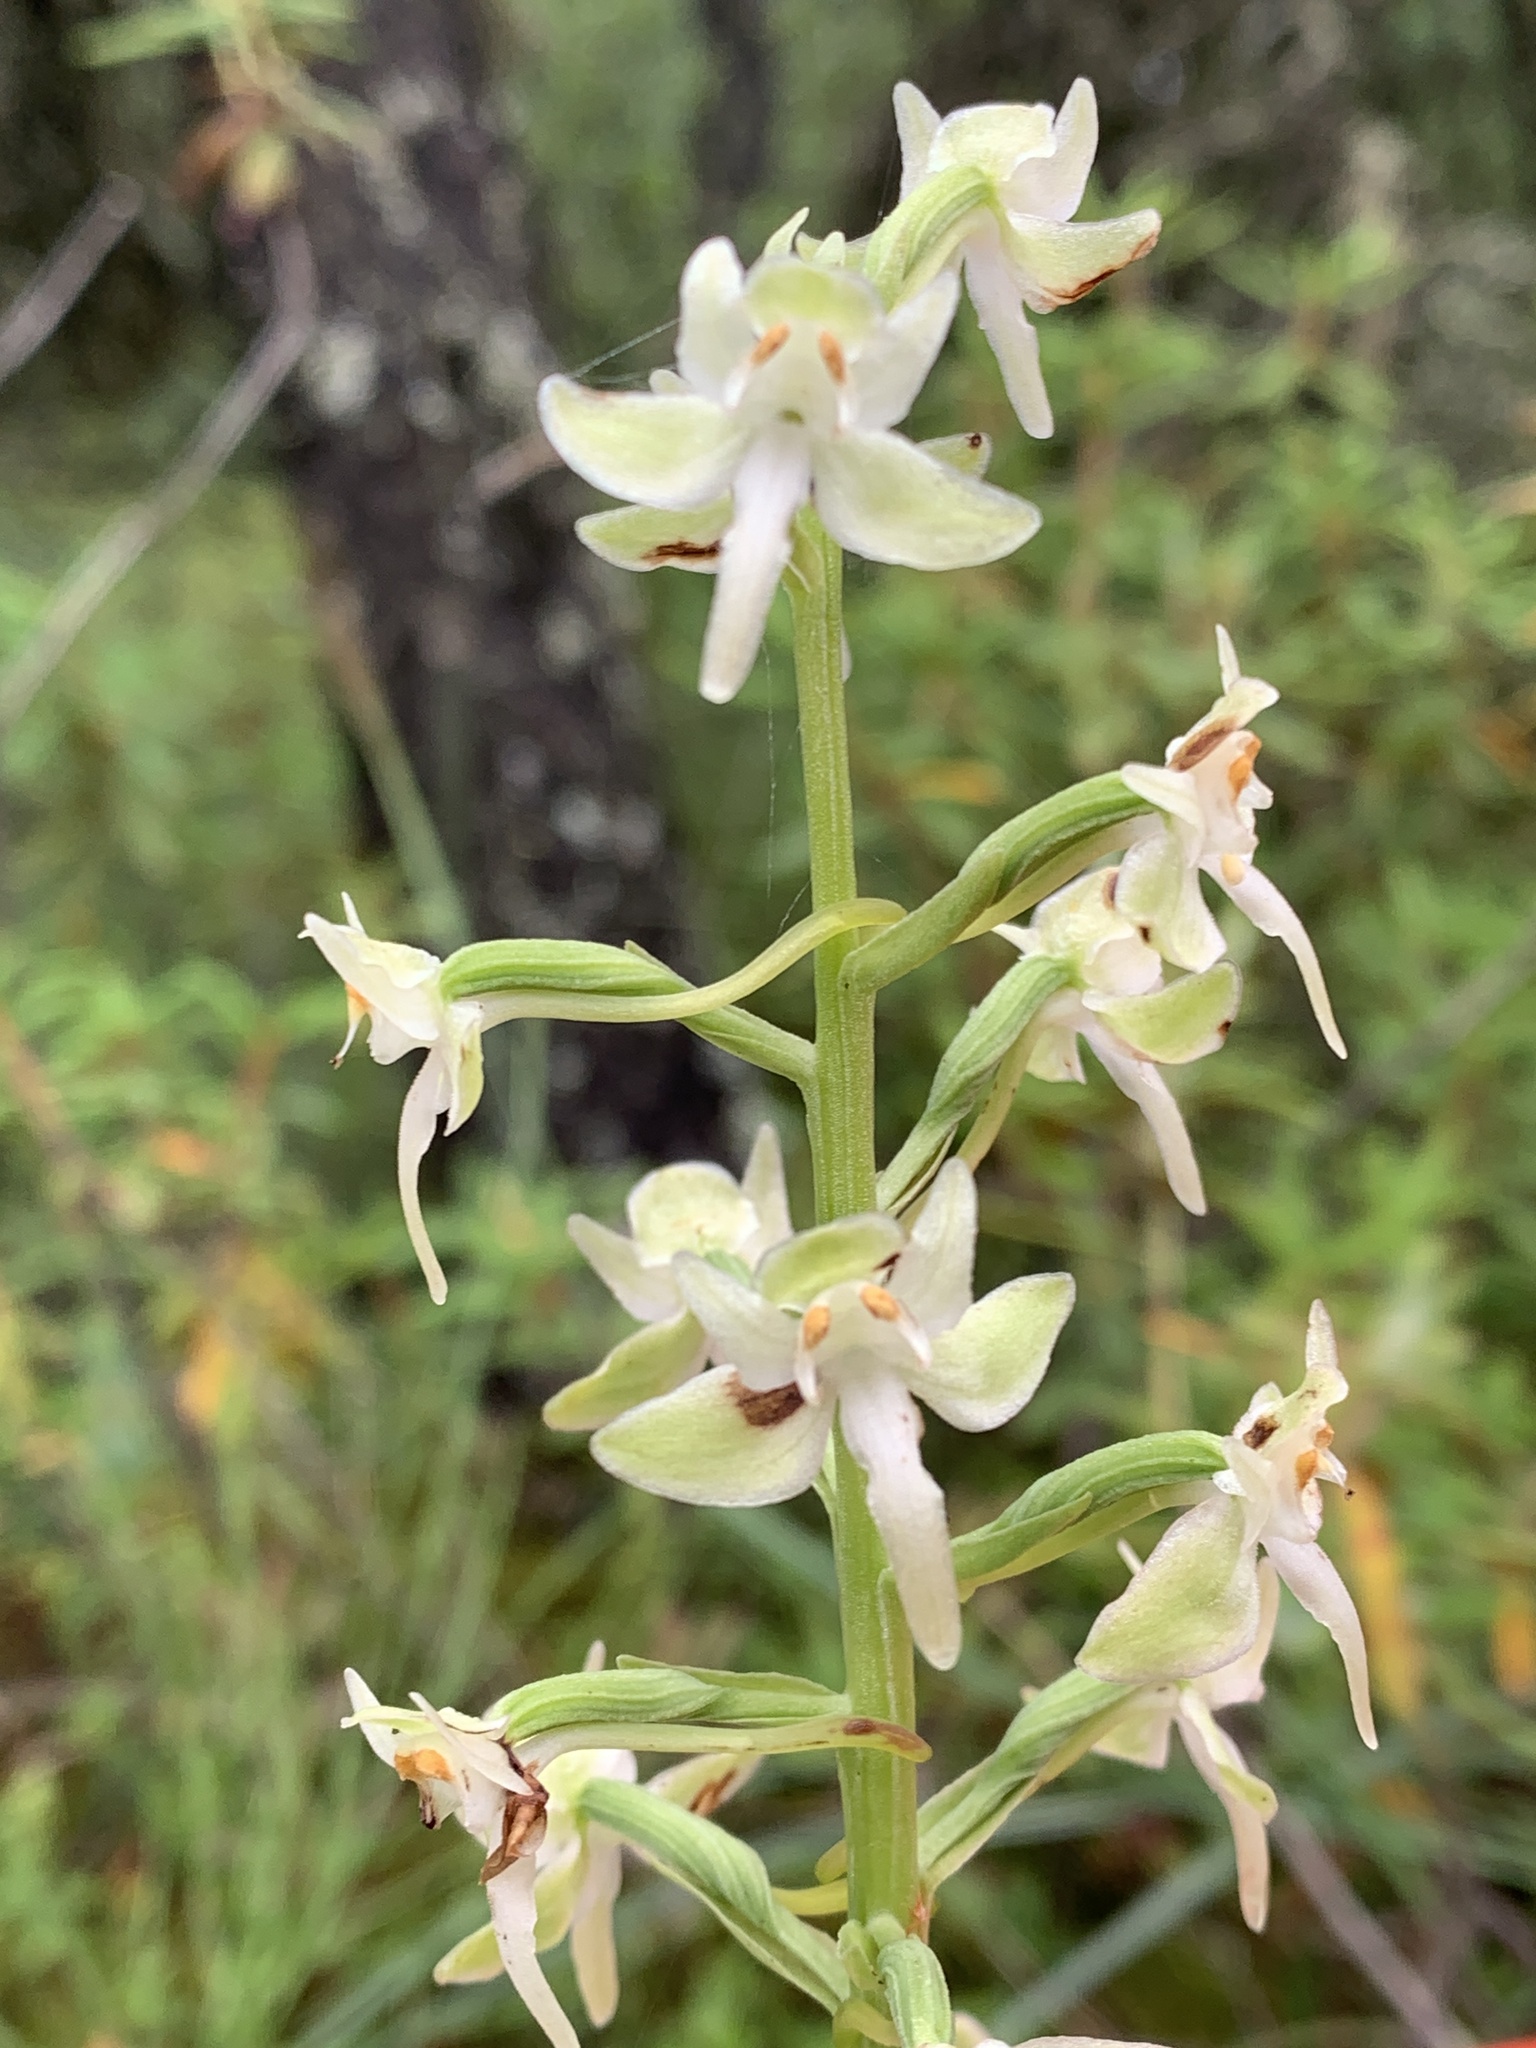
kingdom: Plantae
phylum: Tracheophyta
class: Liliopsida
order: Asparagales
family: Orchidaceae
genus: Platanthera
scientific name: Platanthera orbiculata
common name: Large round-leaved orchid
